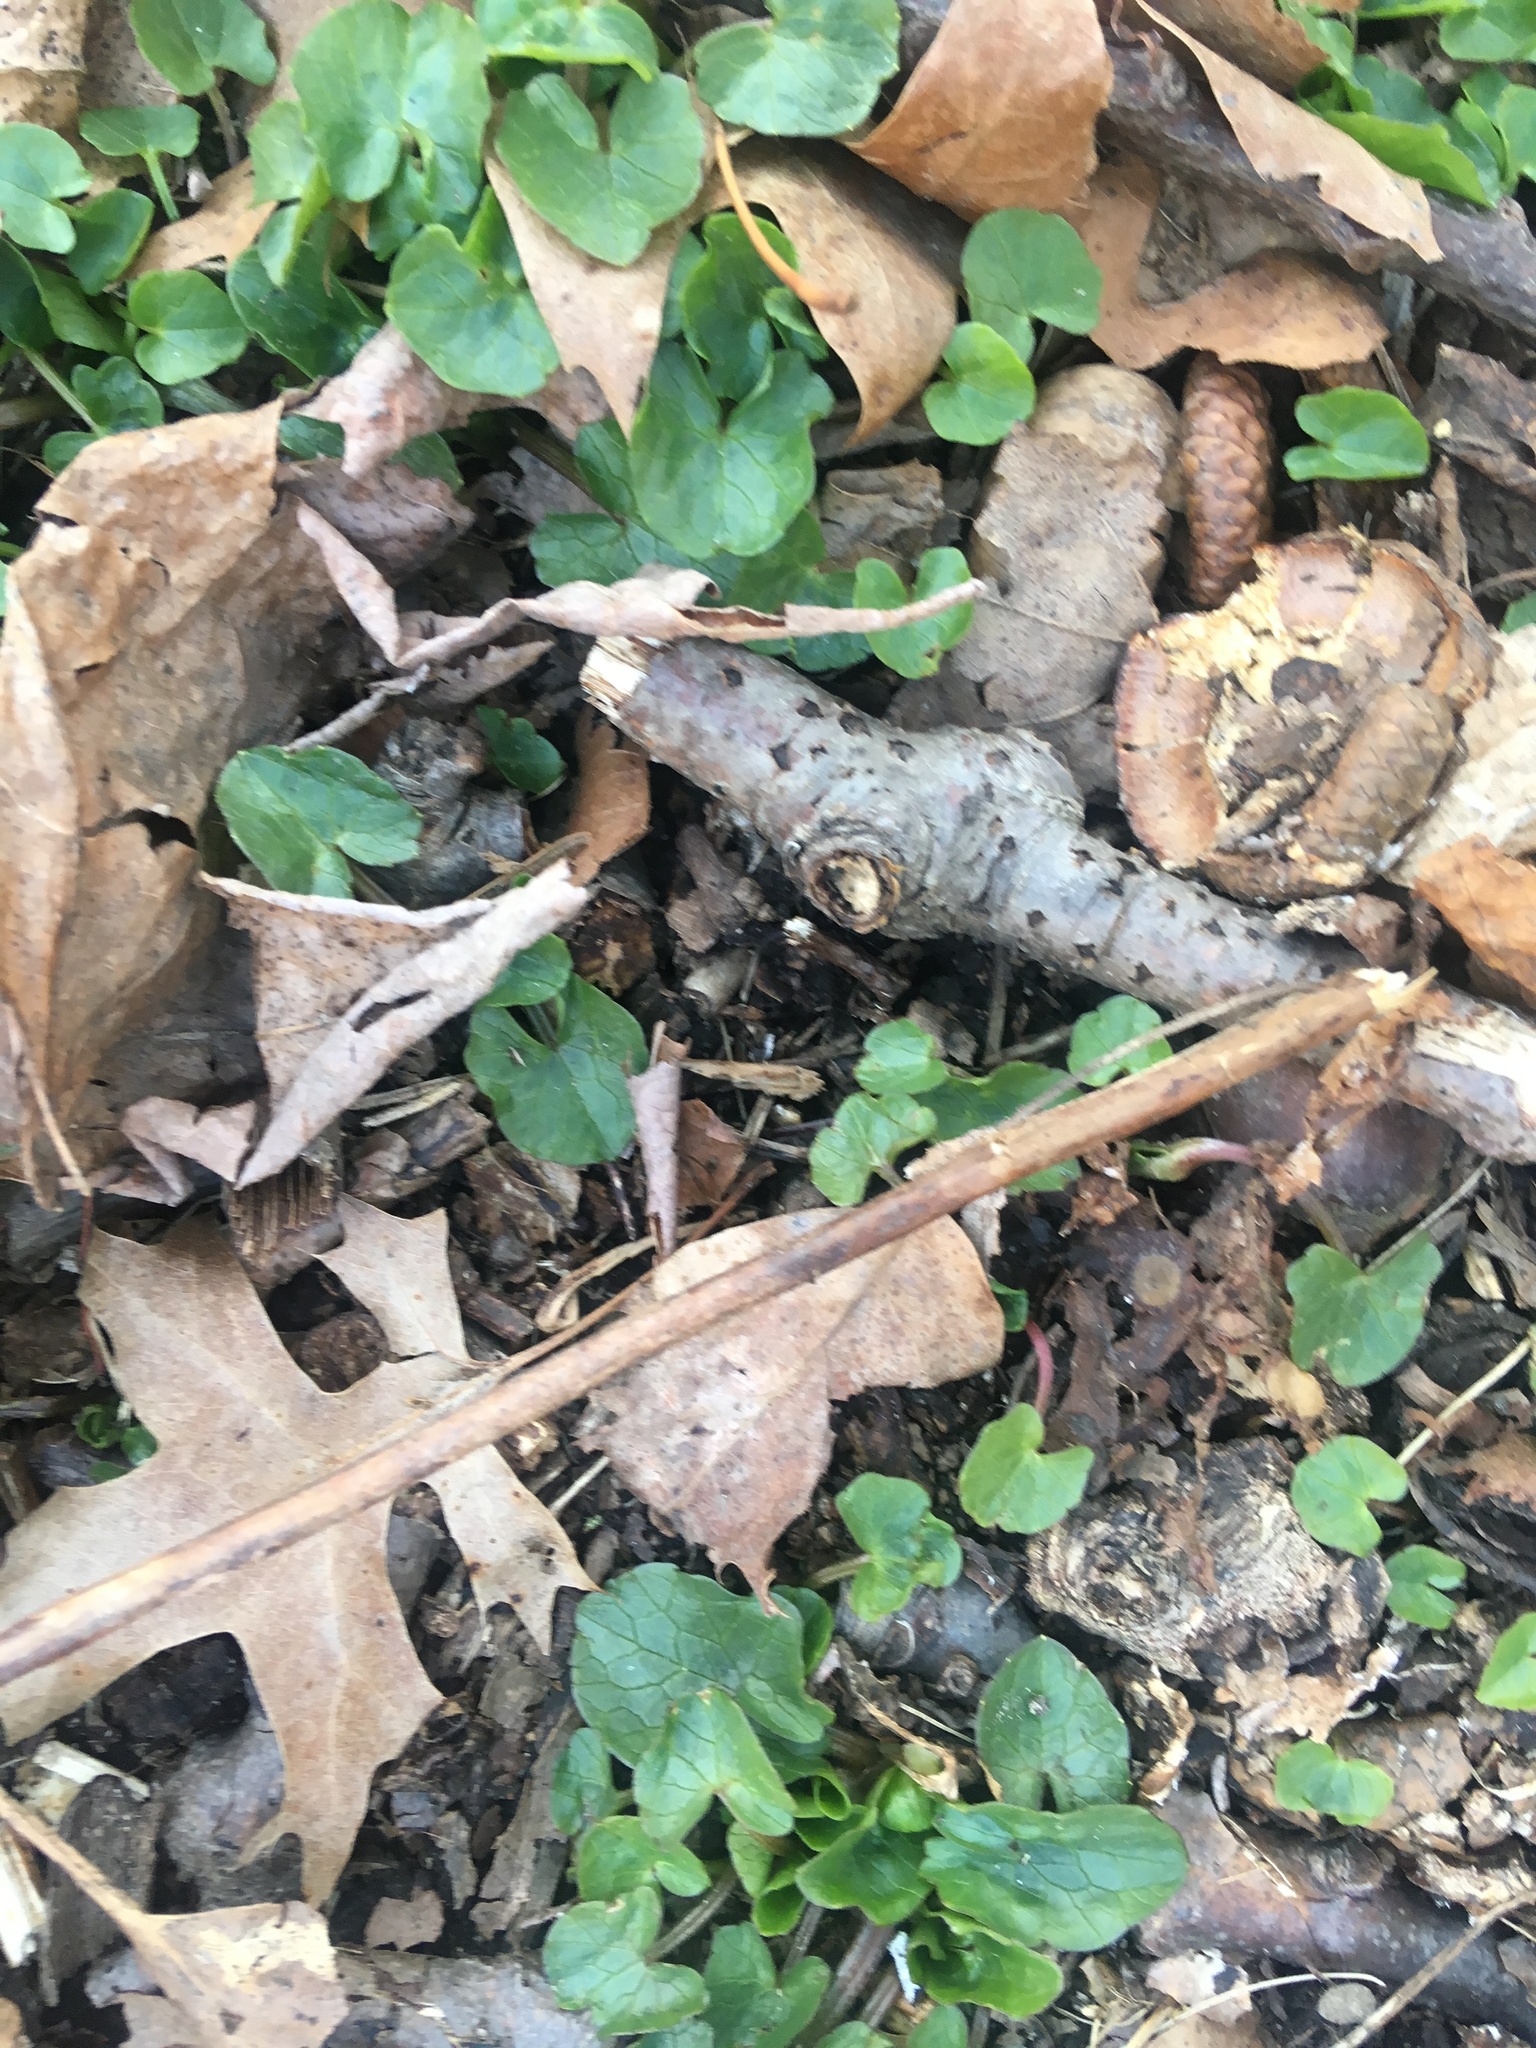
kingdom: Plantae
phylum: Tracheophyta
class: Magnoliopsida
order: Ranunculales
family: Ranunculaceae
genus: Ficaria
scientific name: Ficaria verna
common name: Lesser celandine
